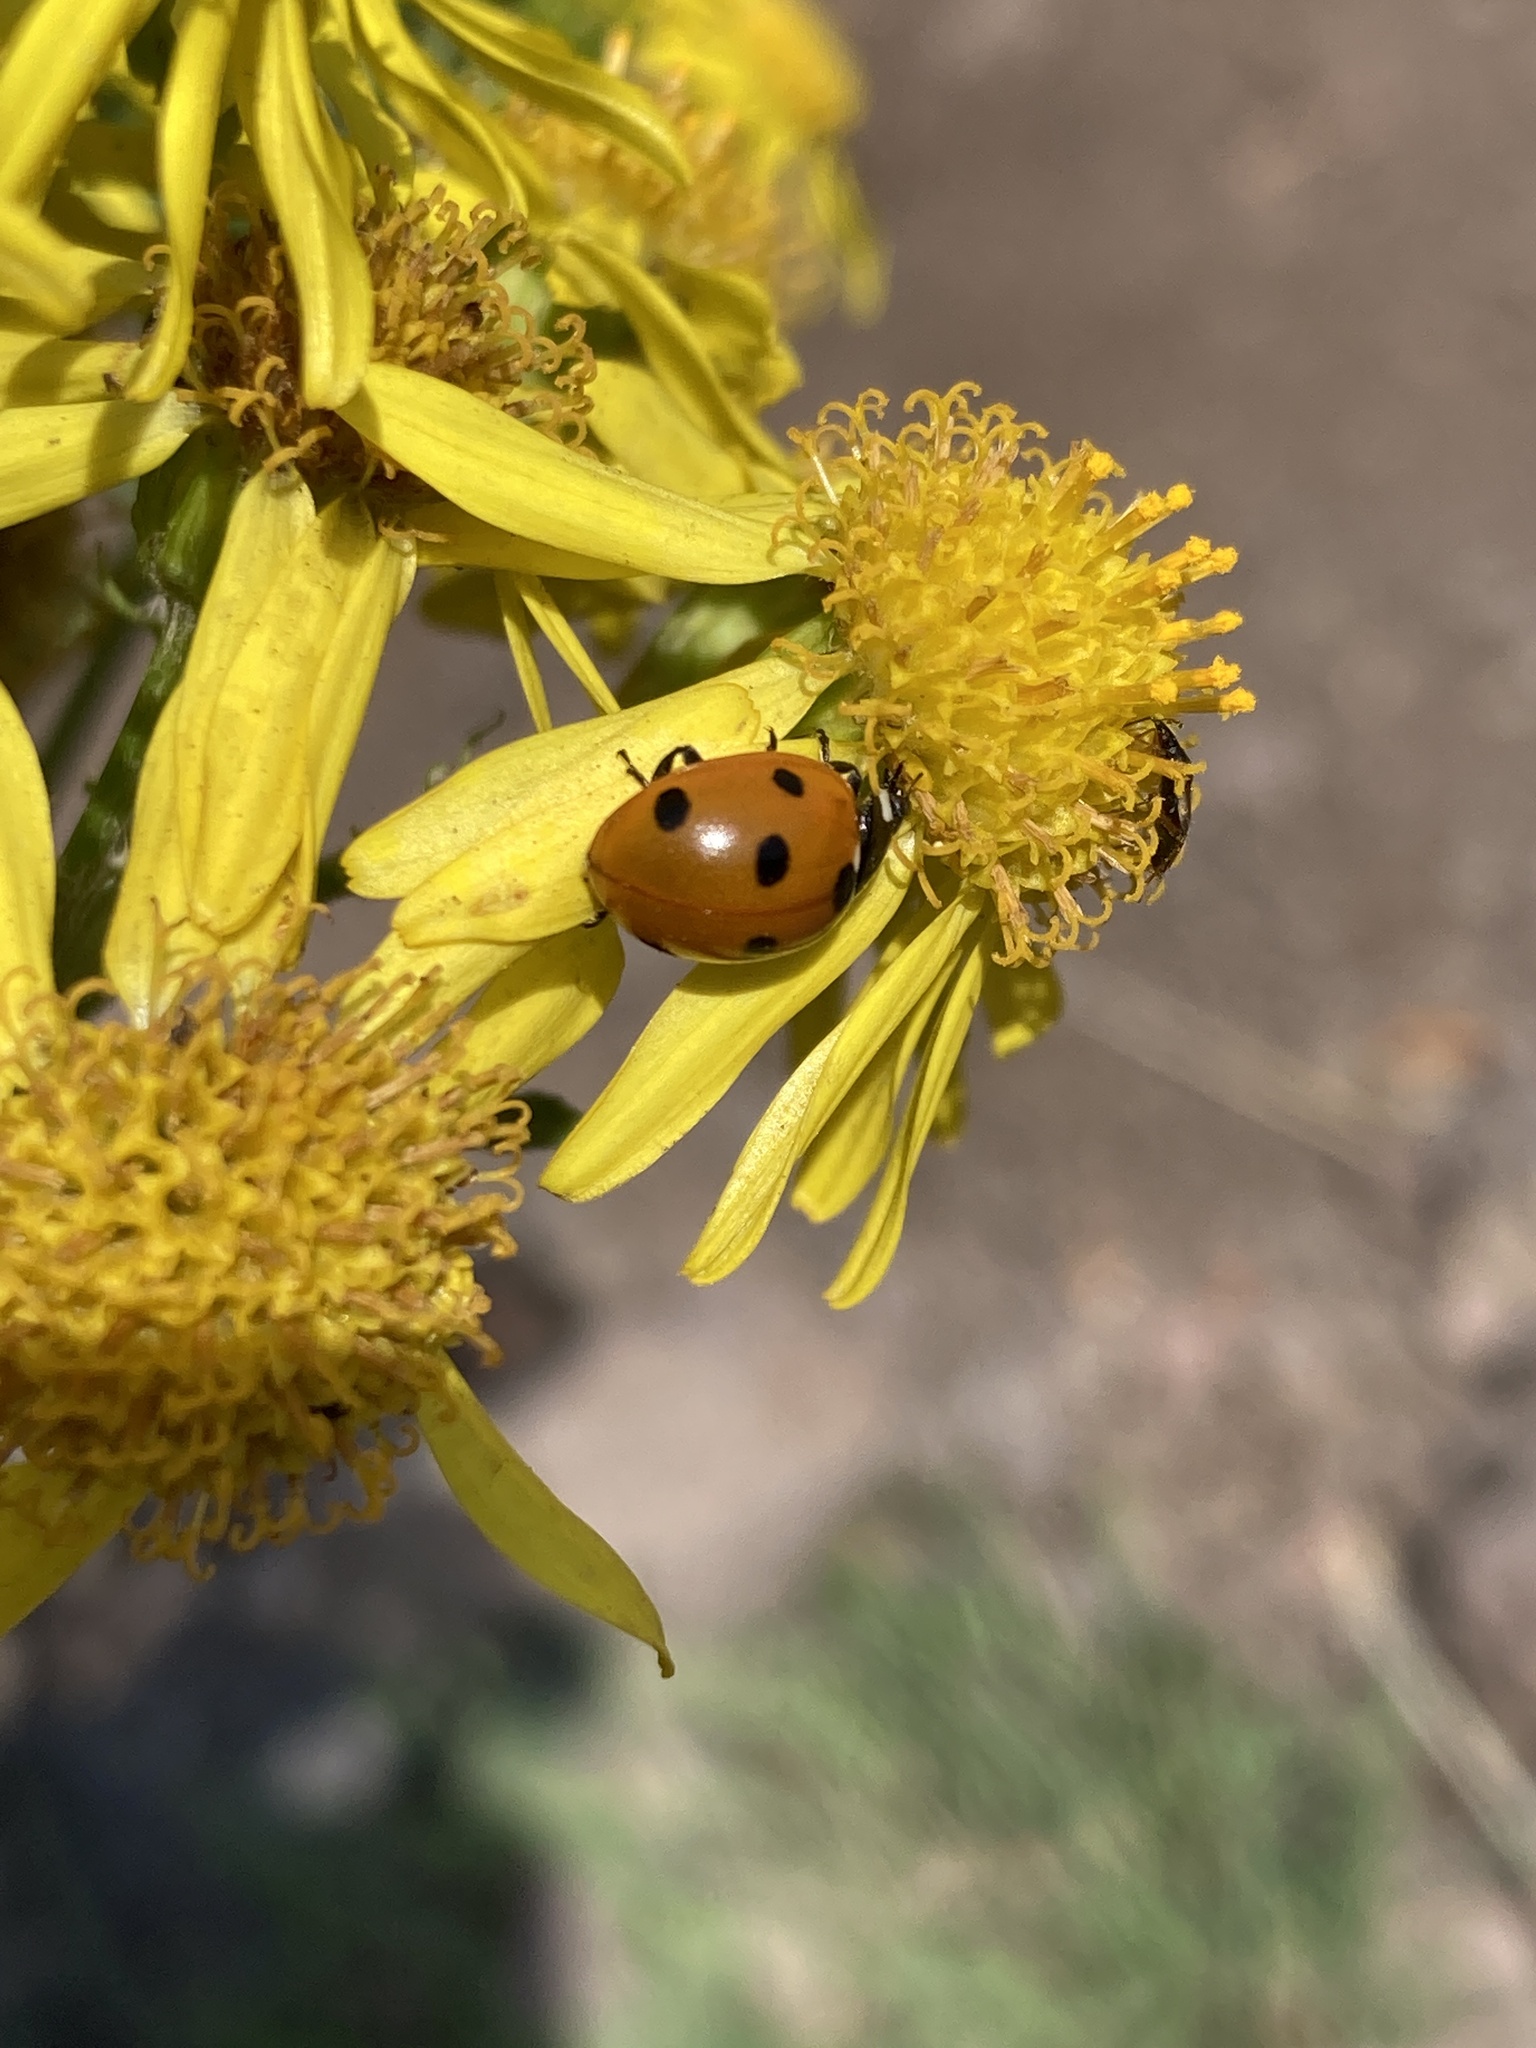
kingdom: Animalia
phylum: Arthropoda
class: Insecta
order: Coleoptera
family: Coccinellidae
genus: Coccinella
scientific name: Coccinella septempunctata
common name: Sevenspotted lady beetle
